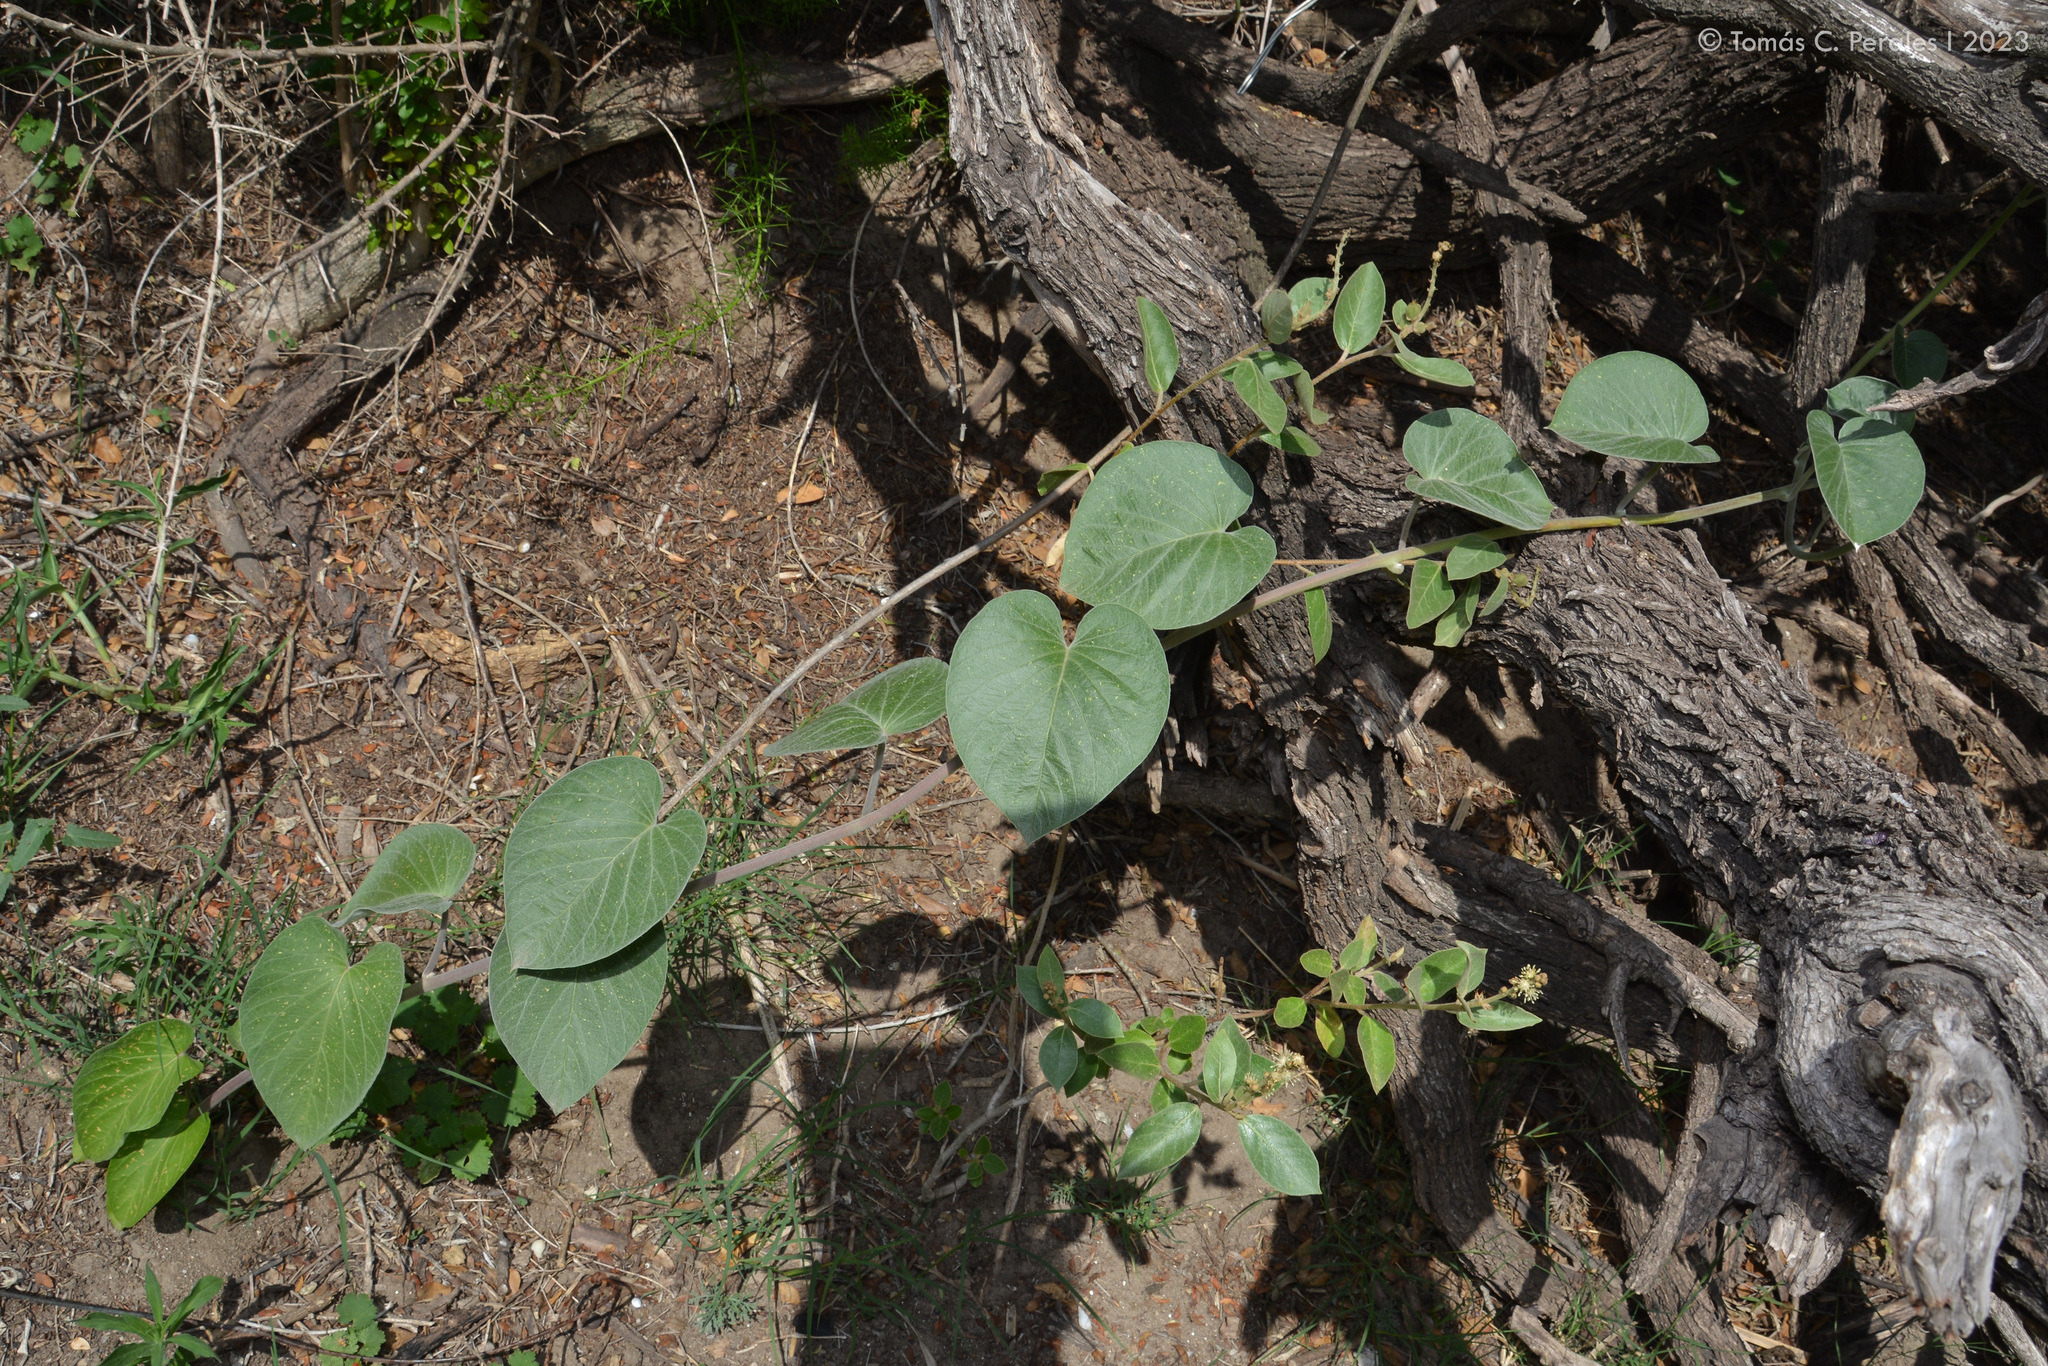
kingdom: Plantae
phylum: Tracheophyta
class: Magnoliopsida
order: Solanales
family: Convolvulaceae
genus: Ipomoea
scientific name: Ipomoea hieronymi
